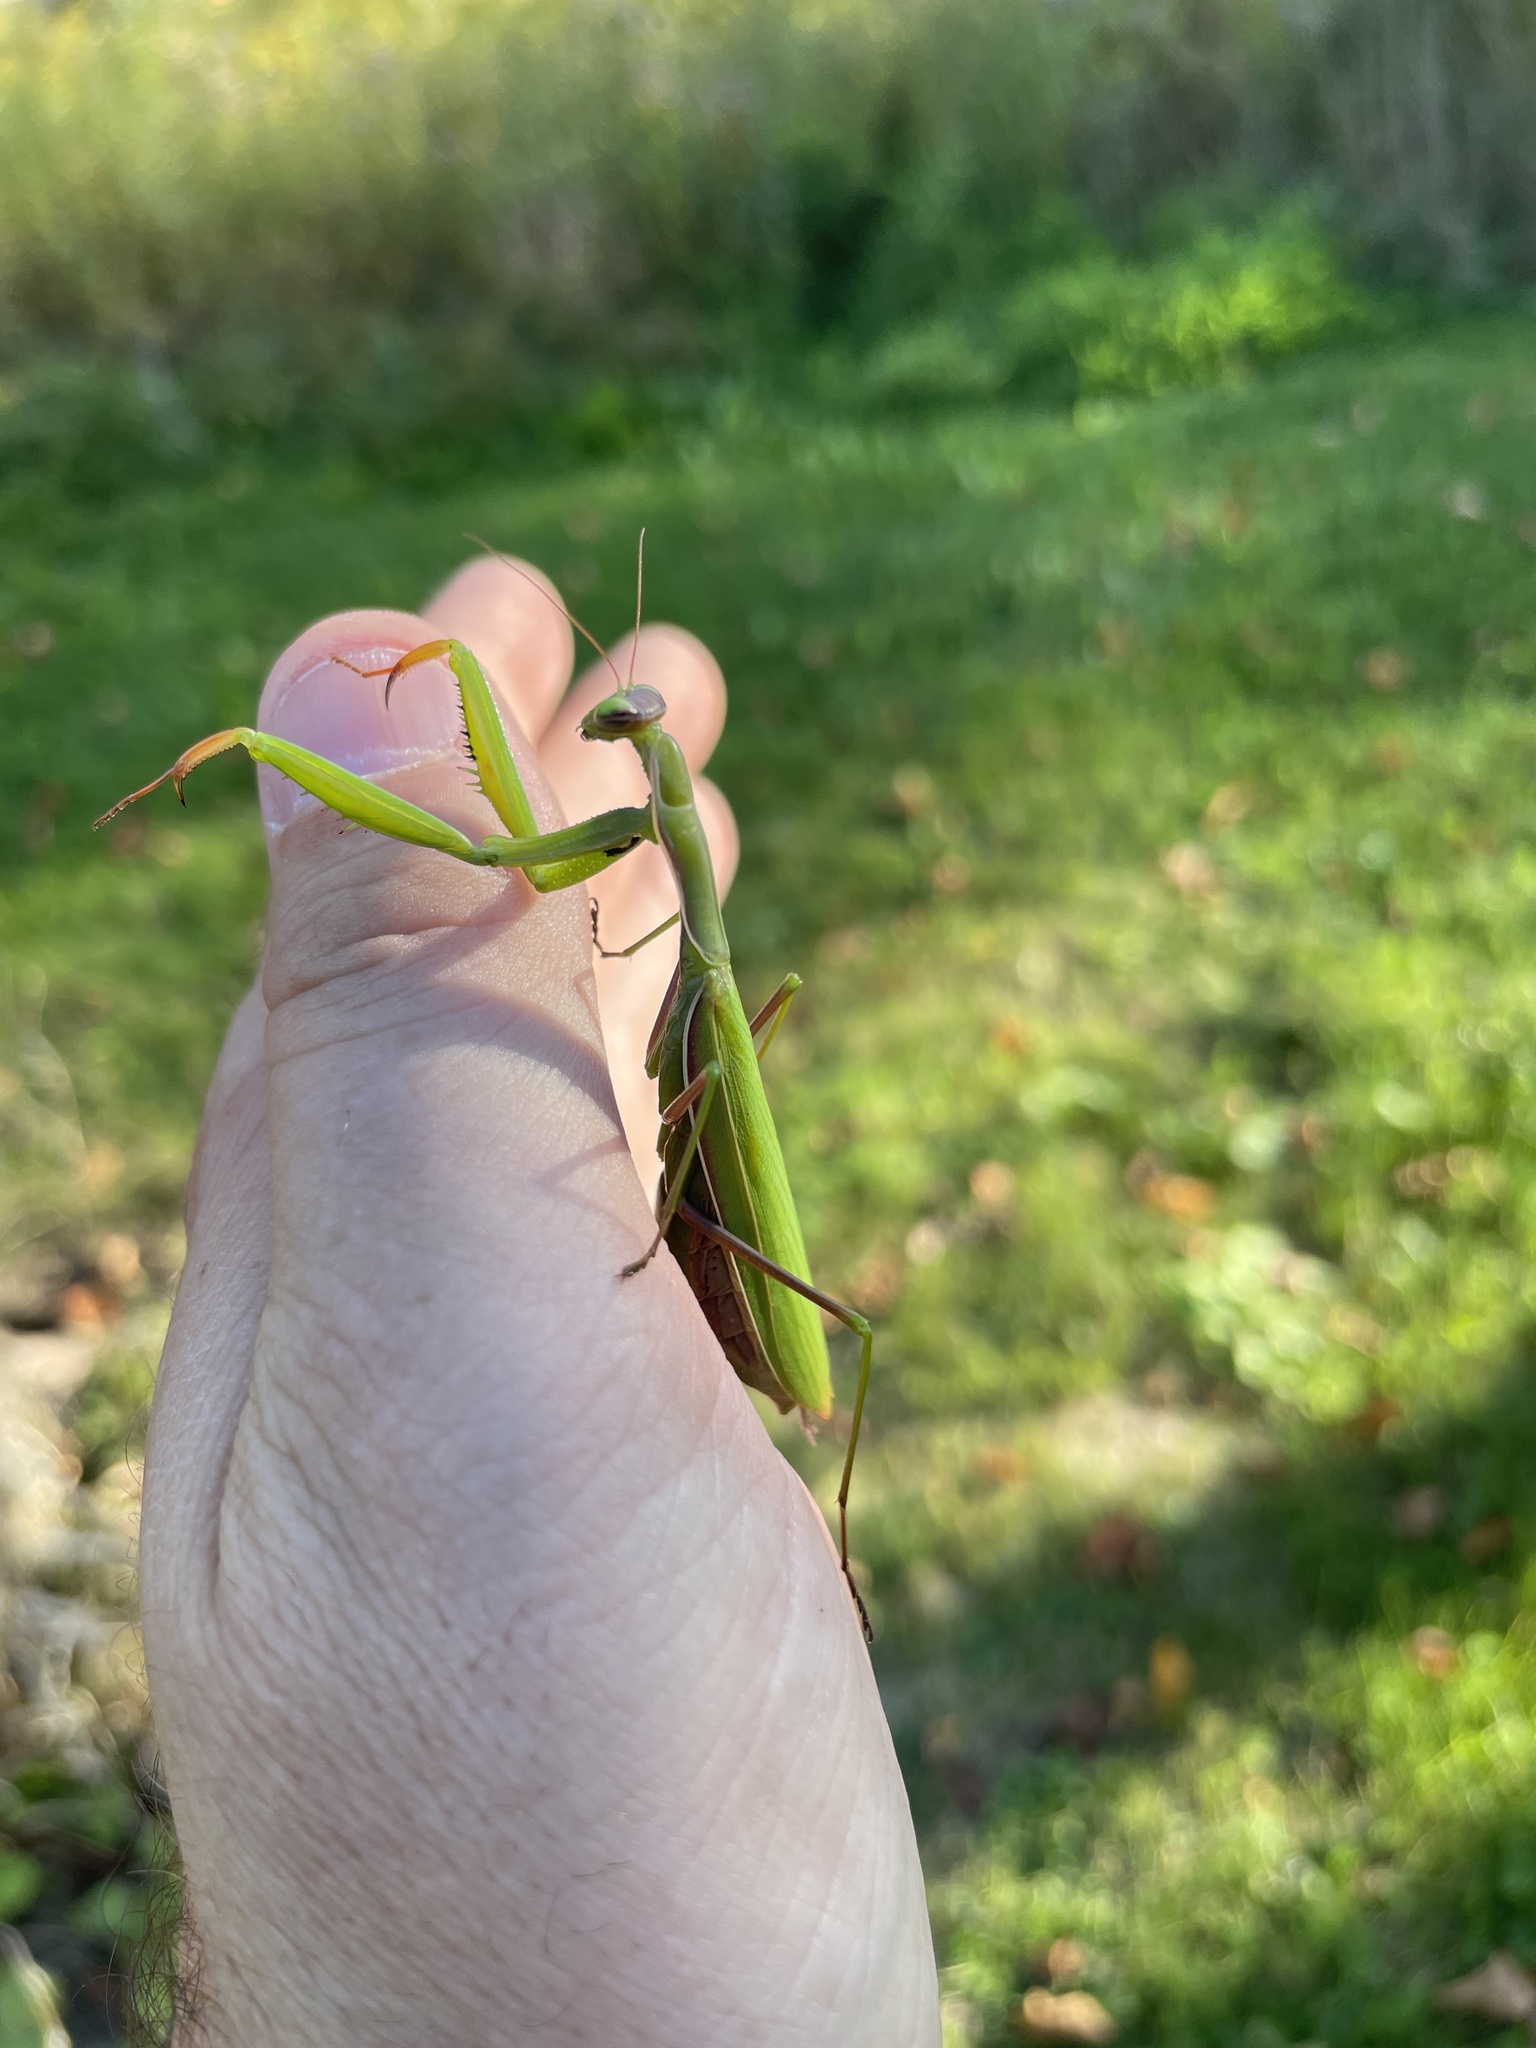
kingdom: Animalia
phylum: Arthropoda
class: Insecta
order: Mantodea
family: Mantidae
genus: Mantis
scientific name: Mantis religiosa
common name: Praying mantis
